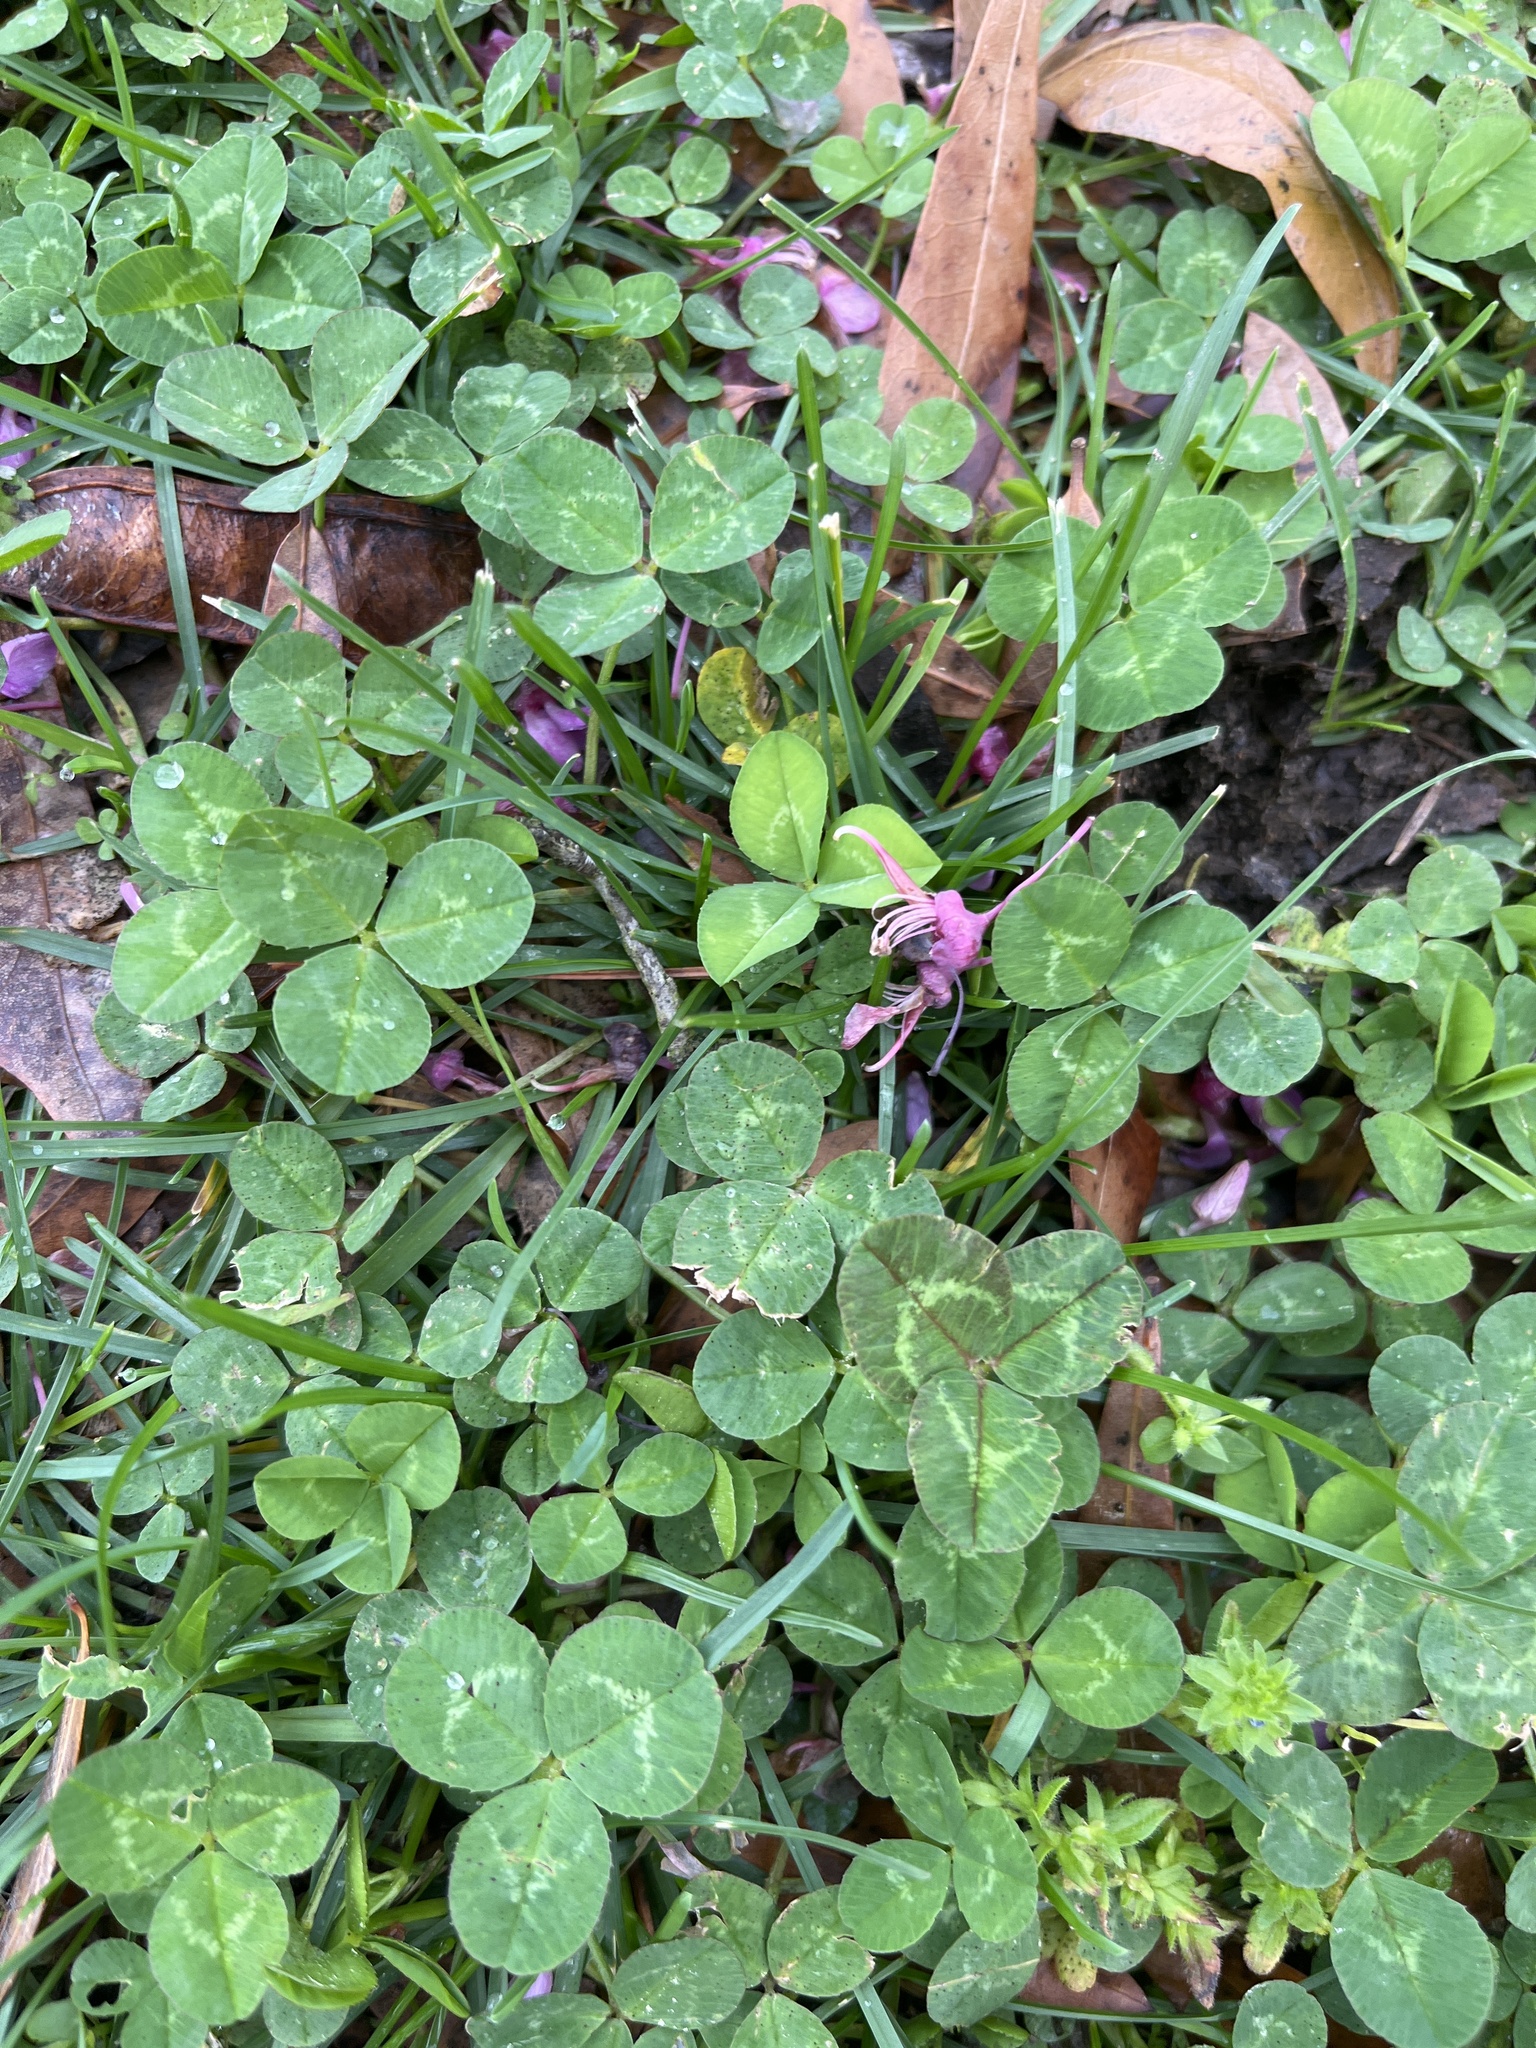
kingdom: Plantae
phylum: Tracheophyta
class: Magnoliopsida
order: Fabales
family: Fabaceae
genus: Trifolium
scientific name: Trifolium repens
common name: White clover
